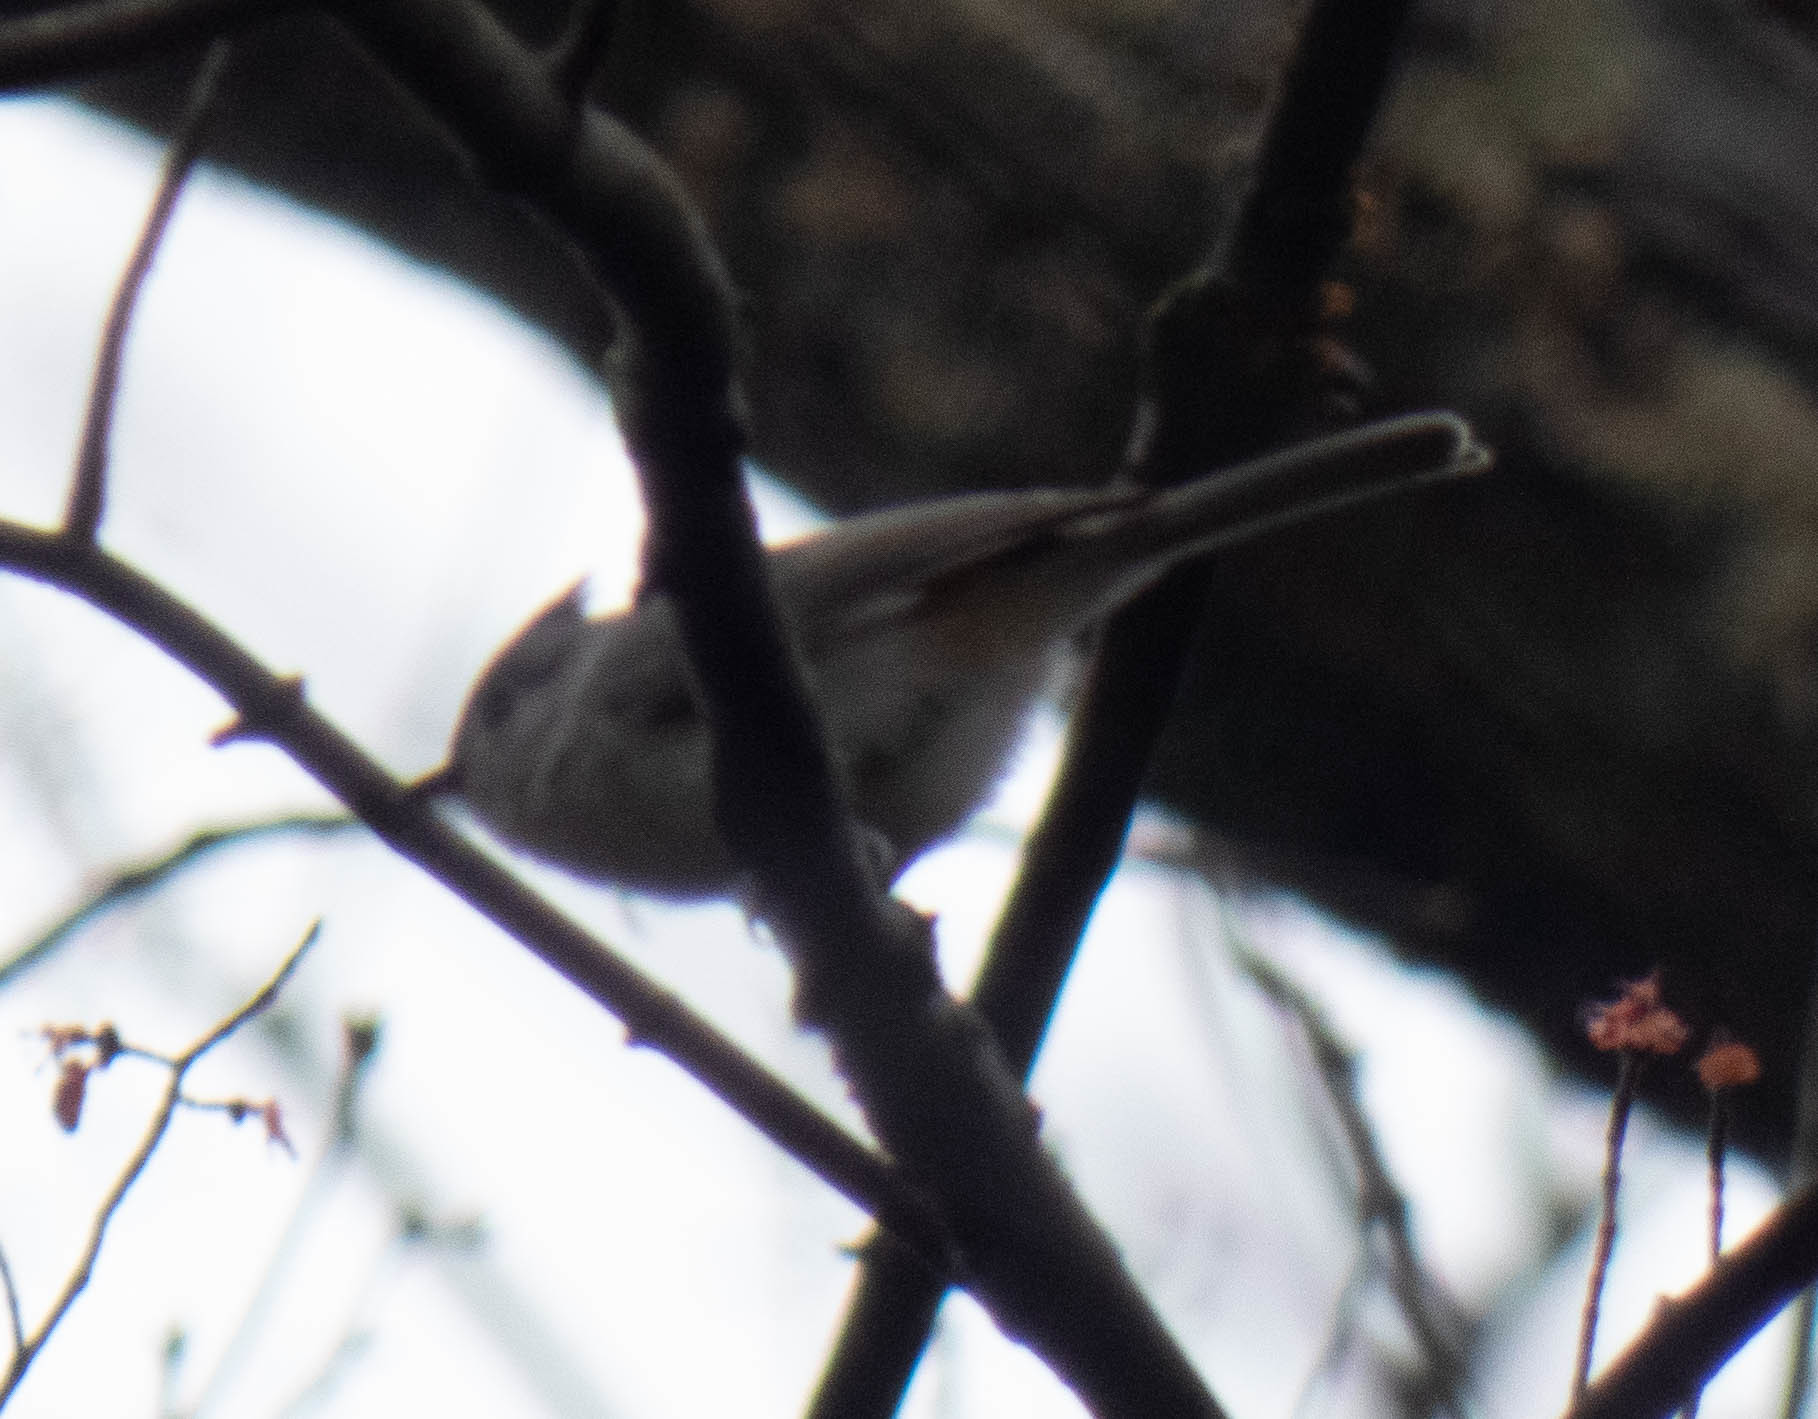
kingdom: Animalia
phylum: Chordata
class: Aves
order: Passeriformes
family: Paridae
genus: Baeolophus
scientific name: Baeolophus bicolor
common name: Tufted titmouse
